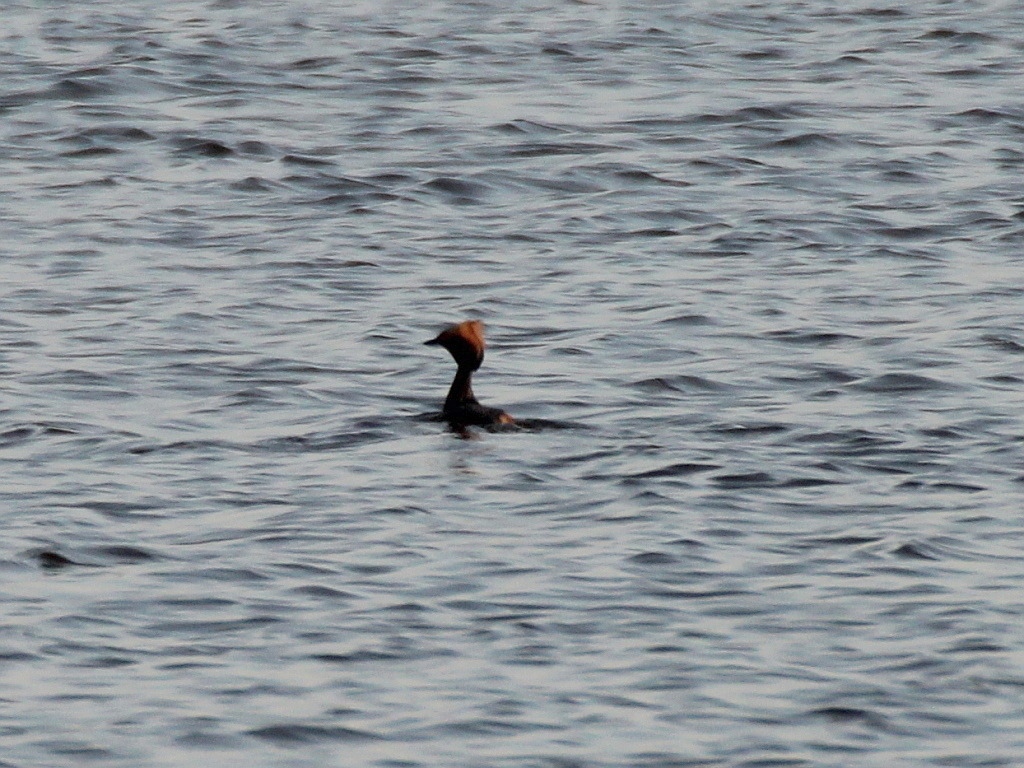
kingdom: Animalia
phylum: Chordata
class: Aves
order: Podicipediformes
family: Podicipedidae
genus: Podiceps
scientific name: Podiceps auritus
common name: Horned grebe
